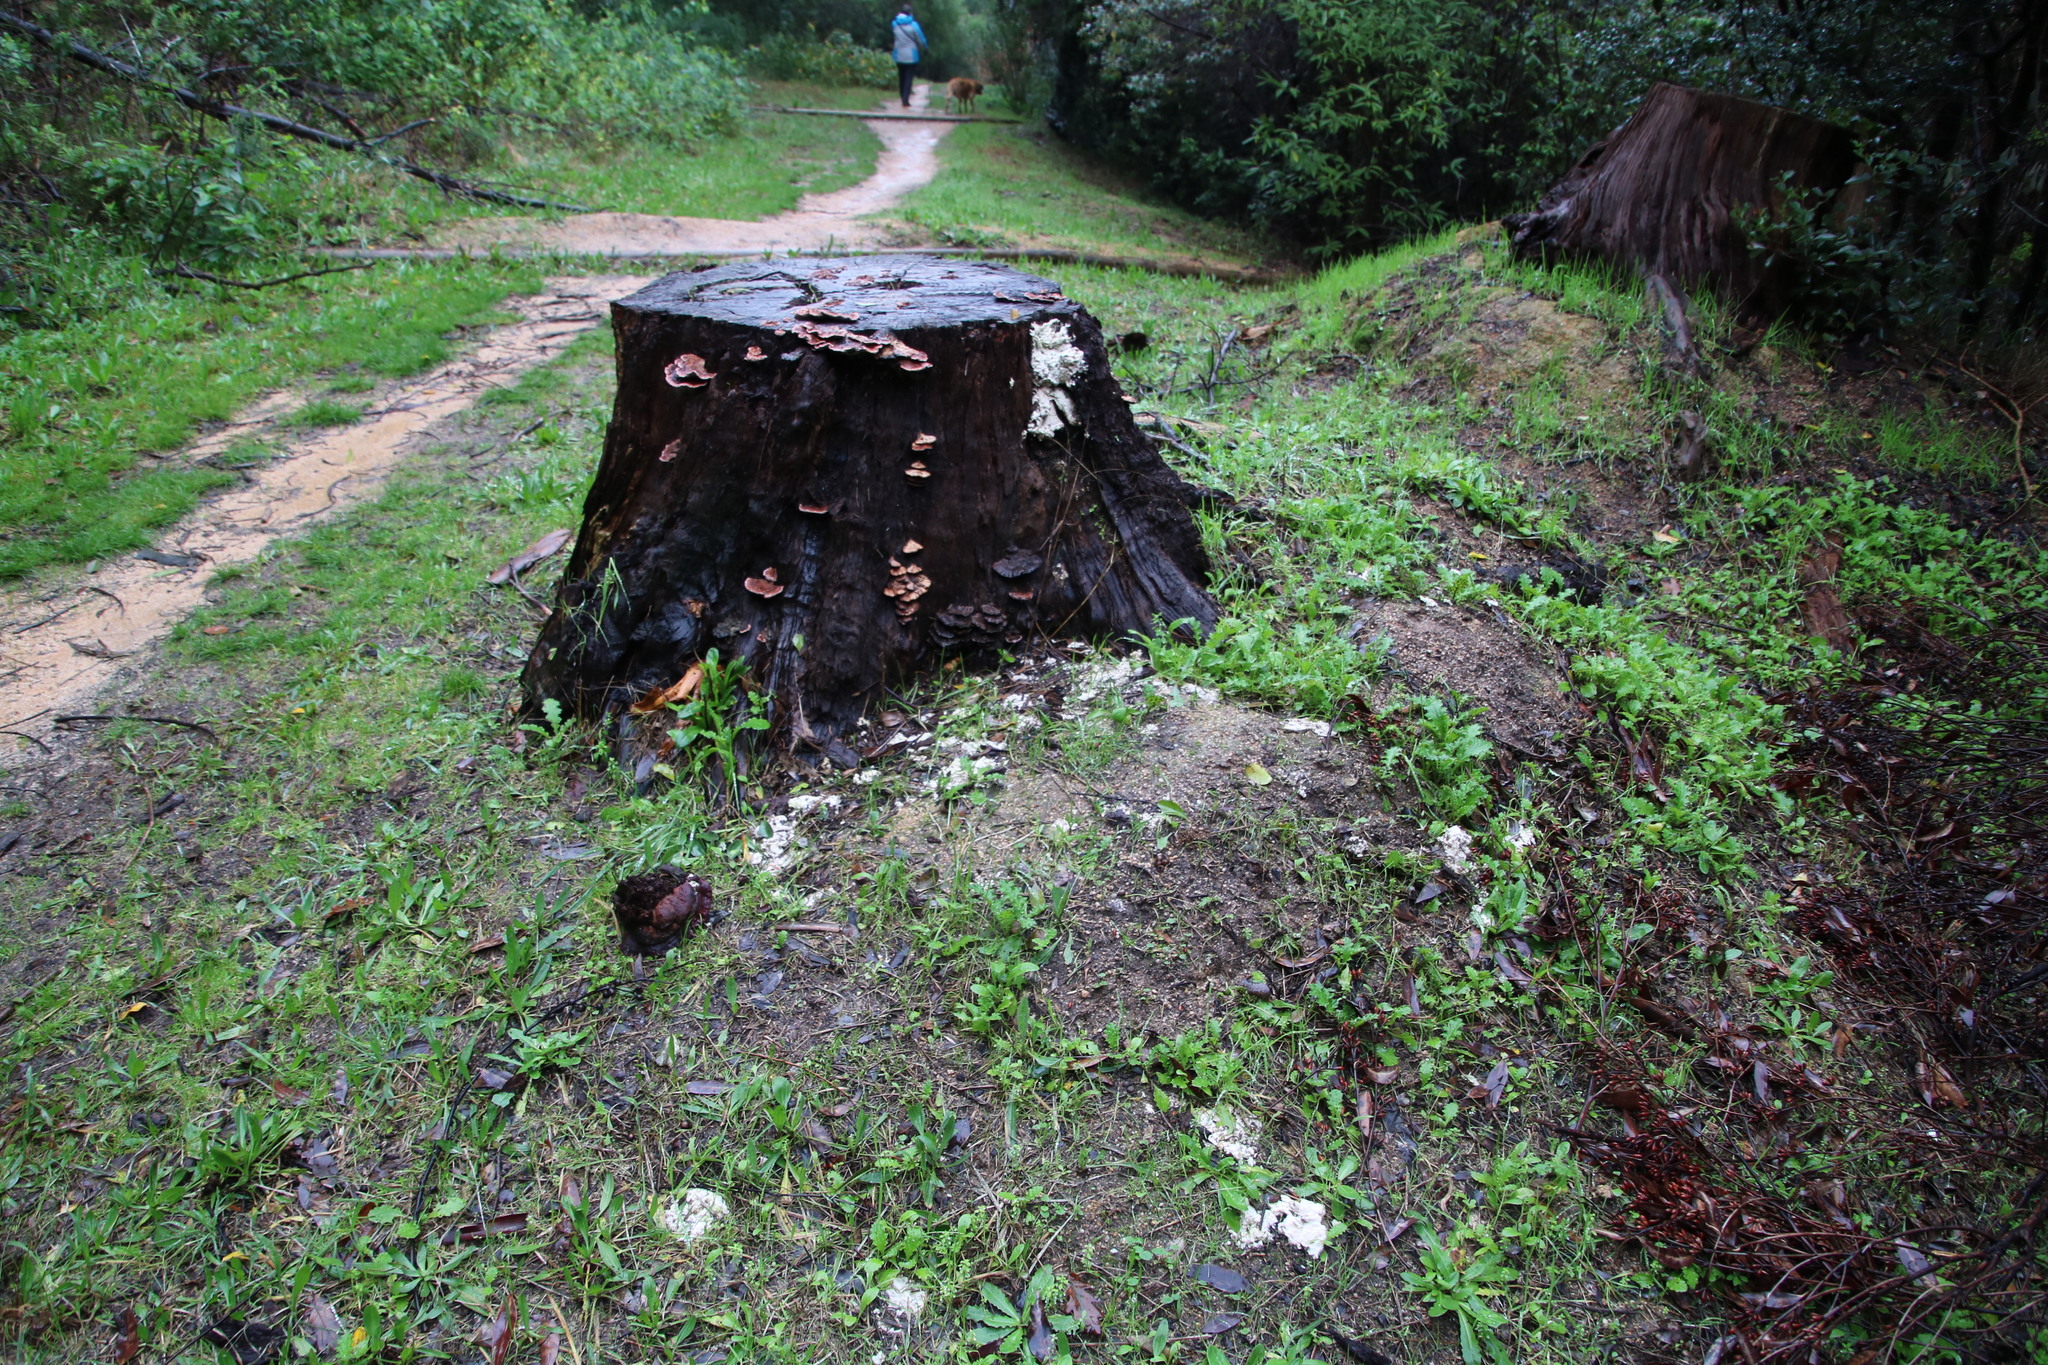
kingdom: Fungi
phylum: Basidiomycota
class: Agaricomycetes
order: Polyporales
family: Laetiporaceae
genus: Laetiporus
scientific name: Laetiporus sulphureus
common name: Chicken of the woods
